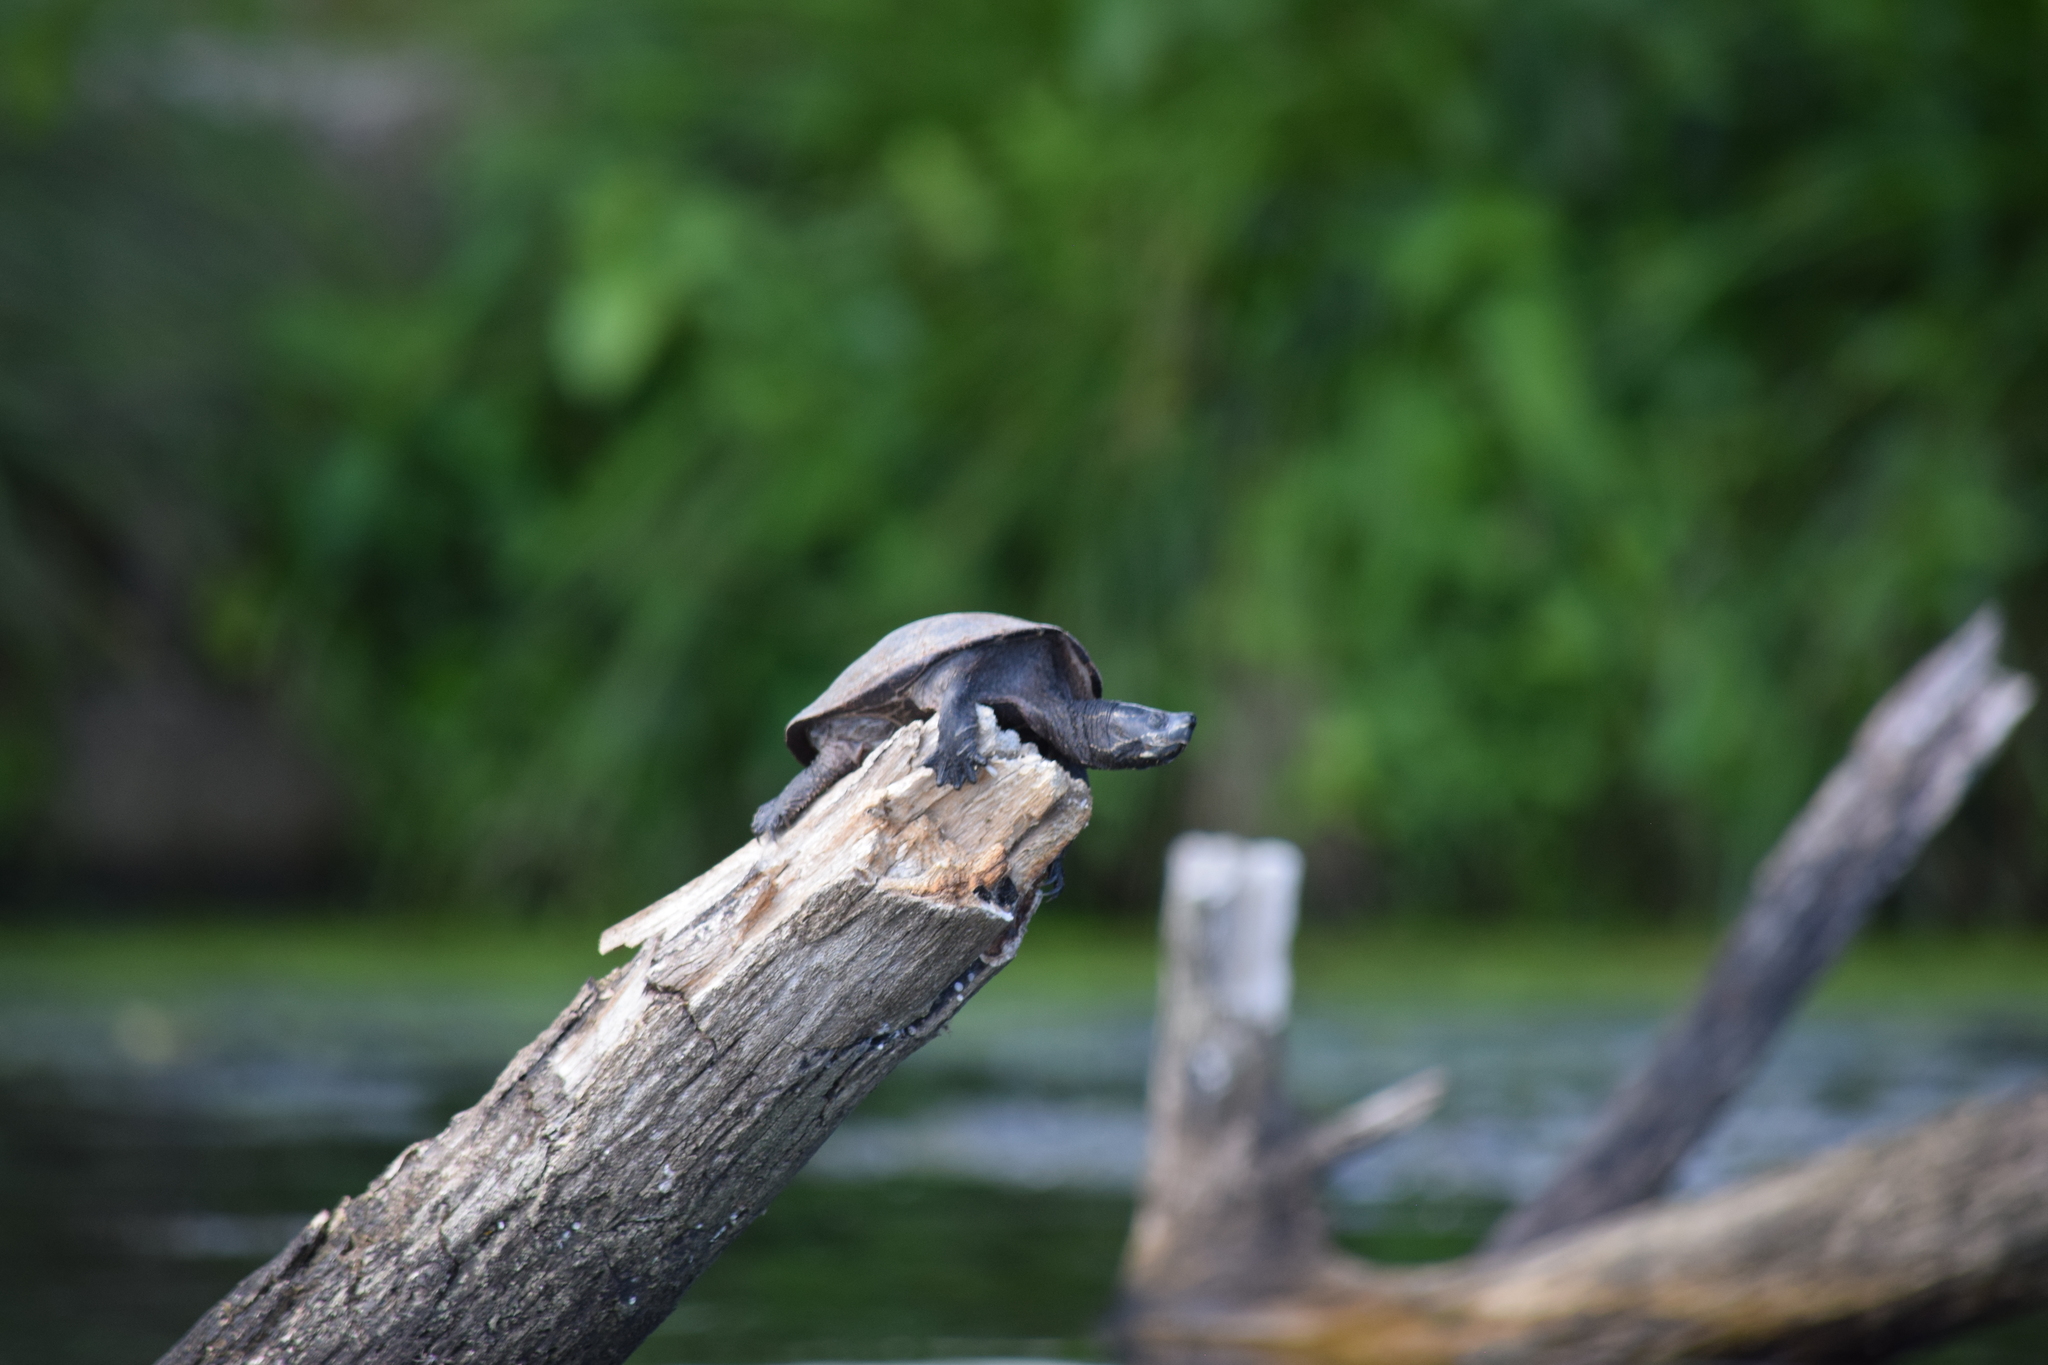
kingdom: Animalia
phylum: Chordata
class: Testudines
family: Kinosternidae
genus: Sternotherus
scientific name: Sternotherus odoratus
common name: Common musk turtle
